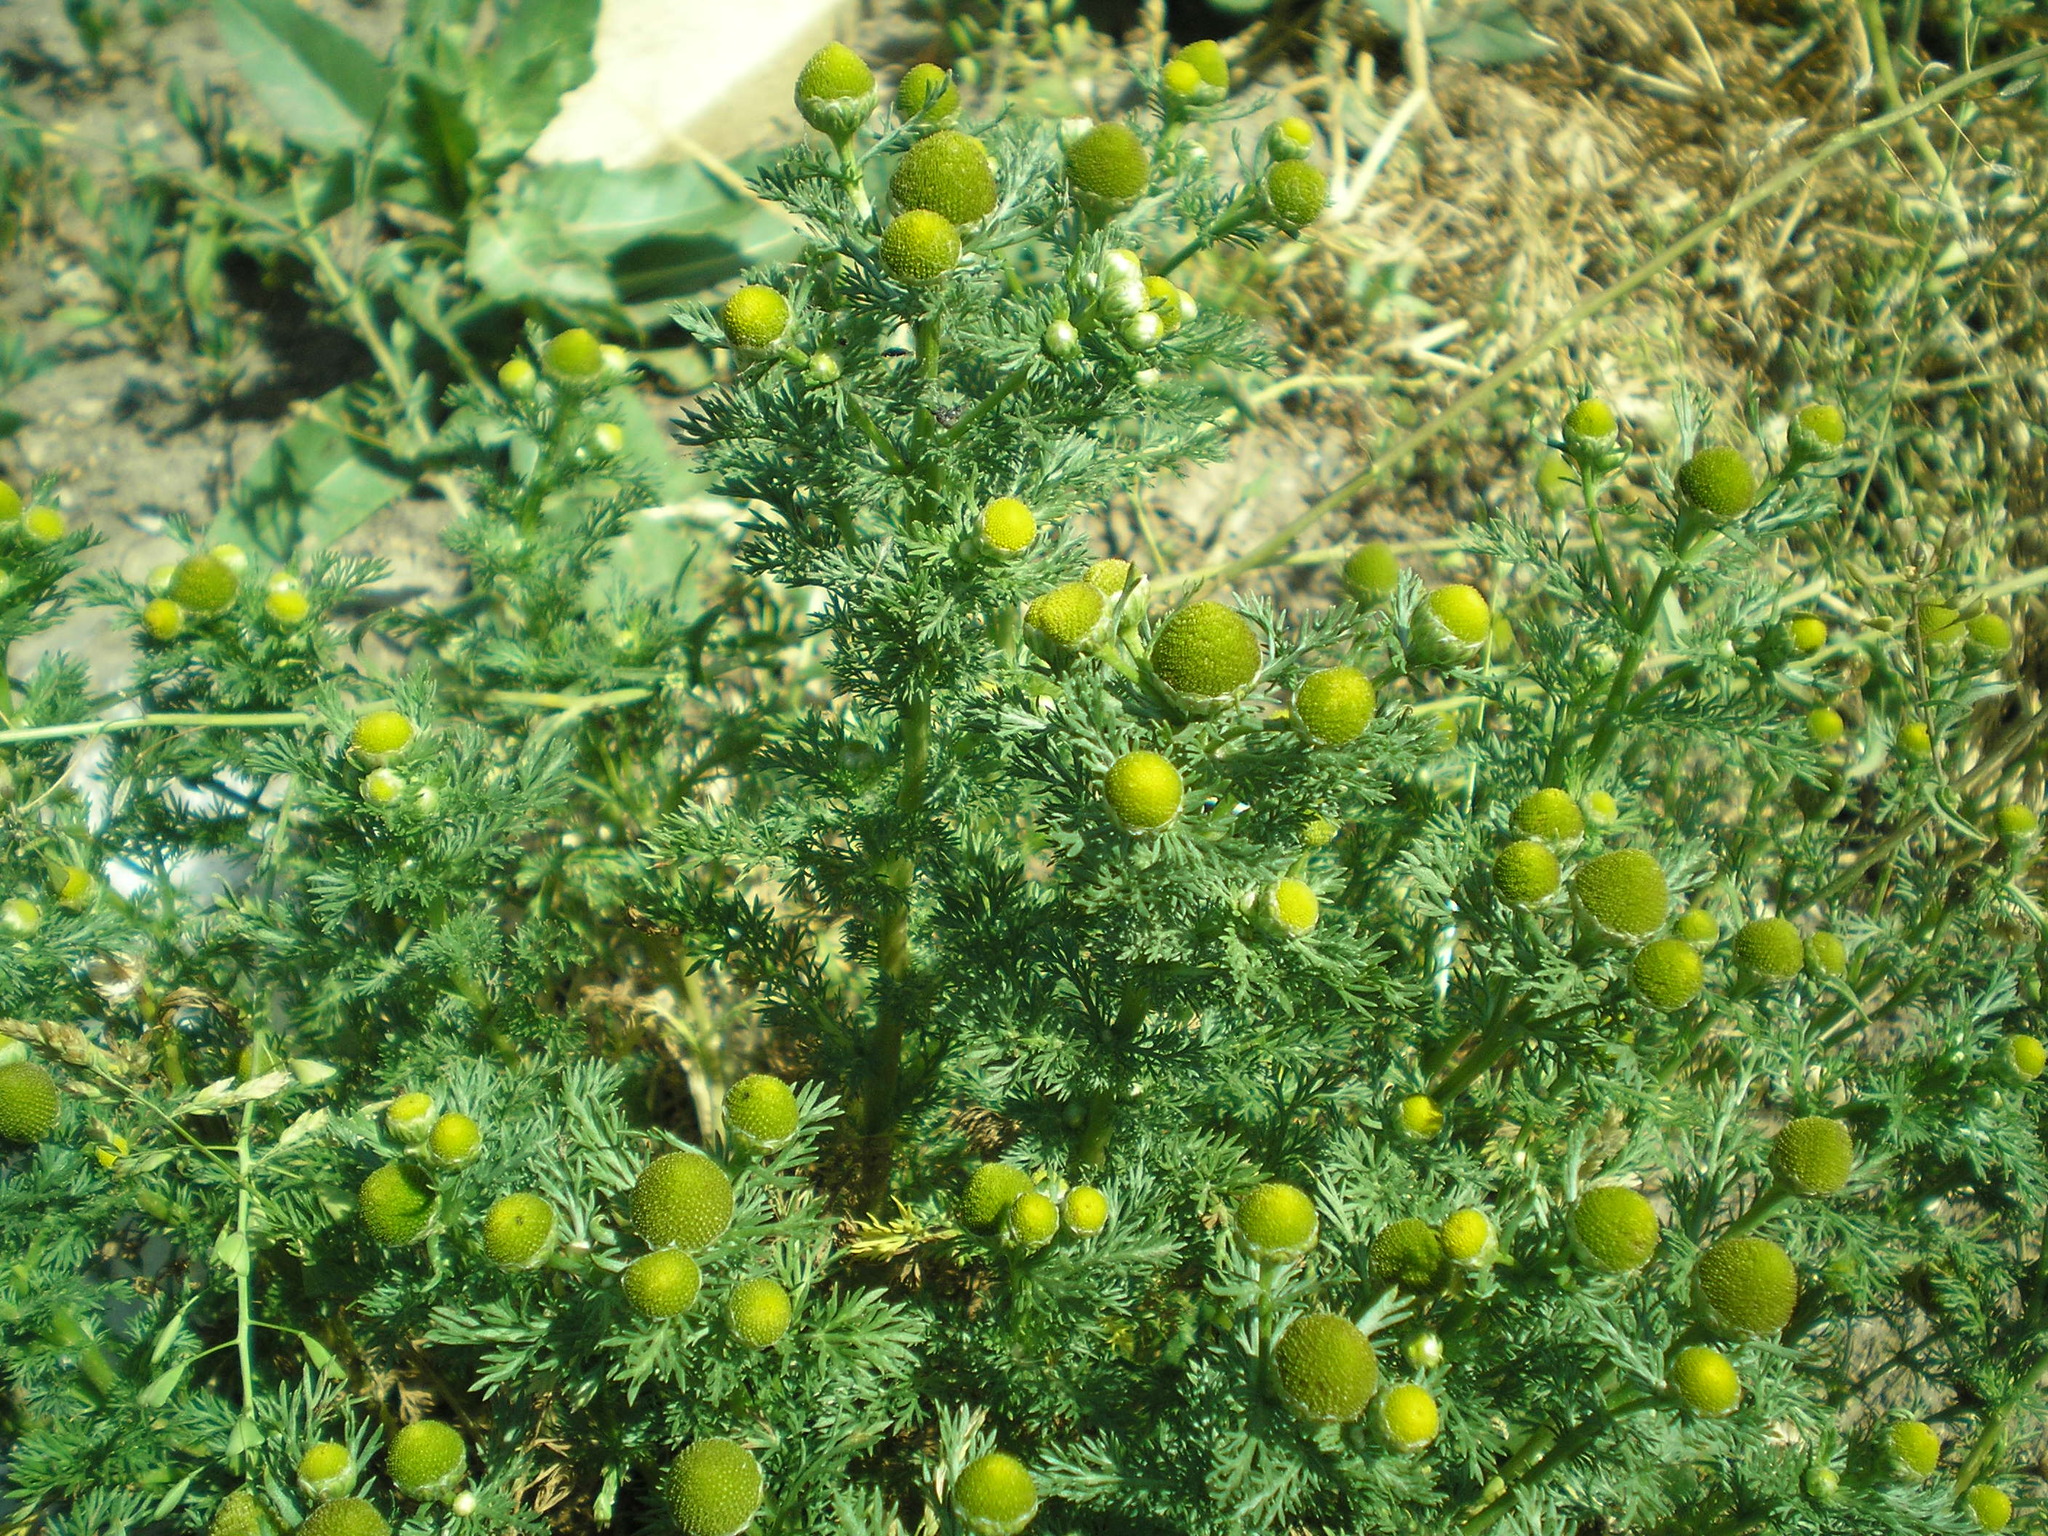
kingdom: Plantae
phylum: Tracheophyta
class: Magnoliopsida
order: Asterales
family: Asteraceae
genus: Matricaria
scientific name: Matricaria discoidea
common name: Disc mayweed
